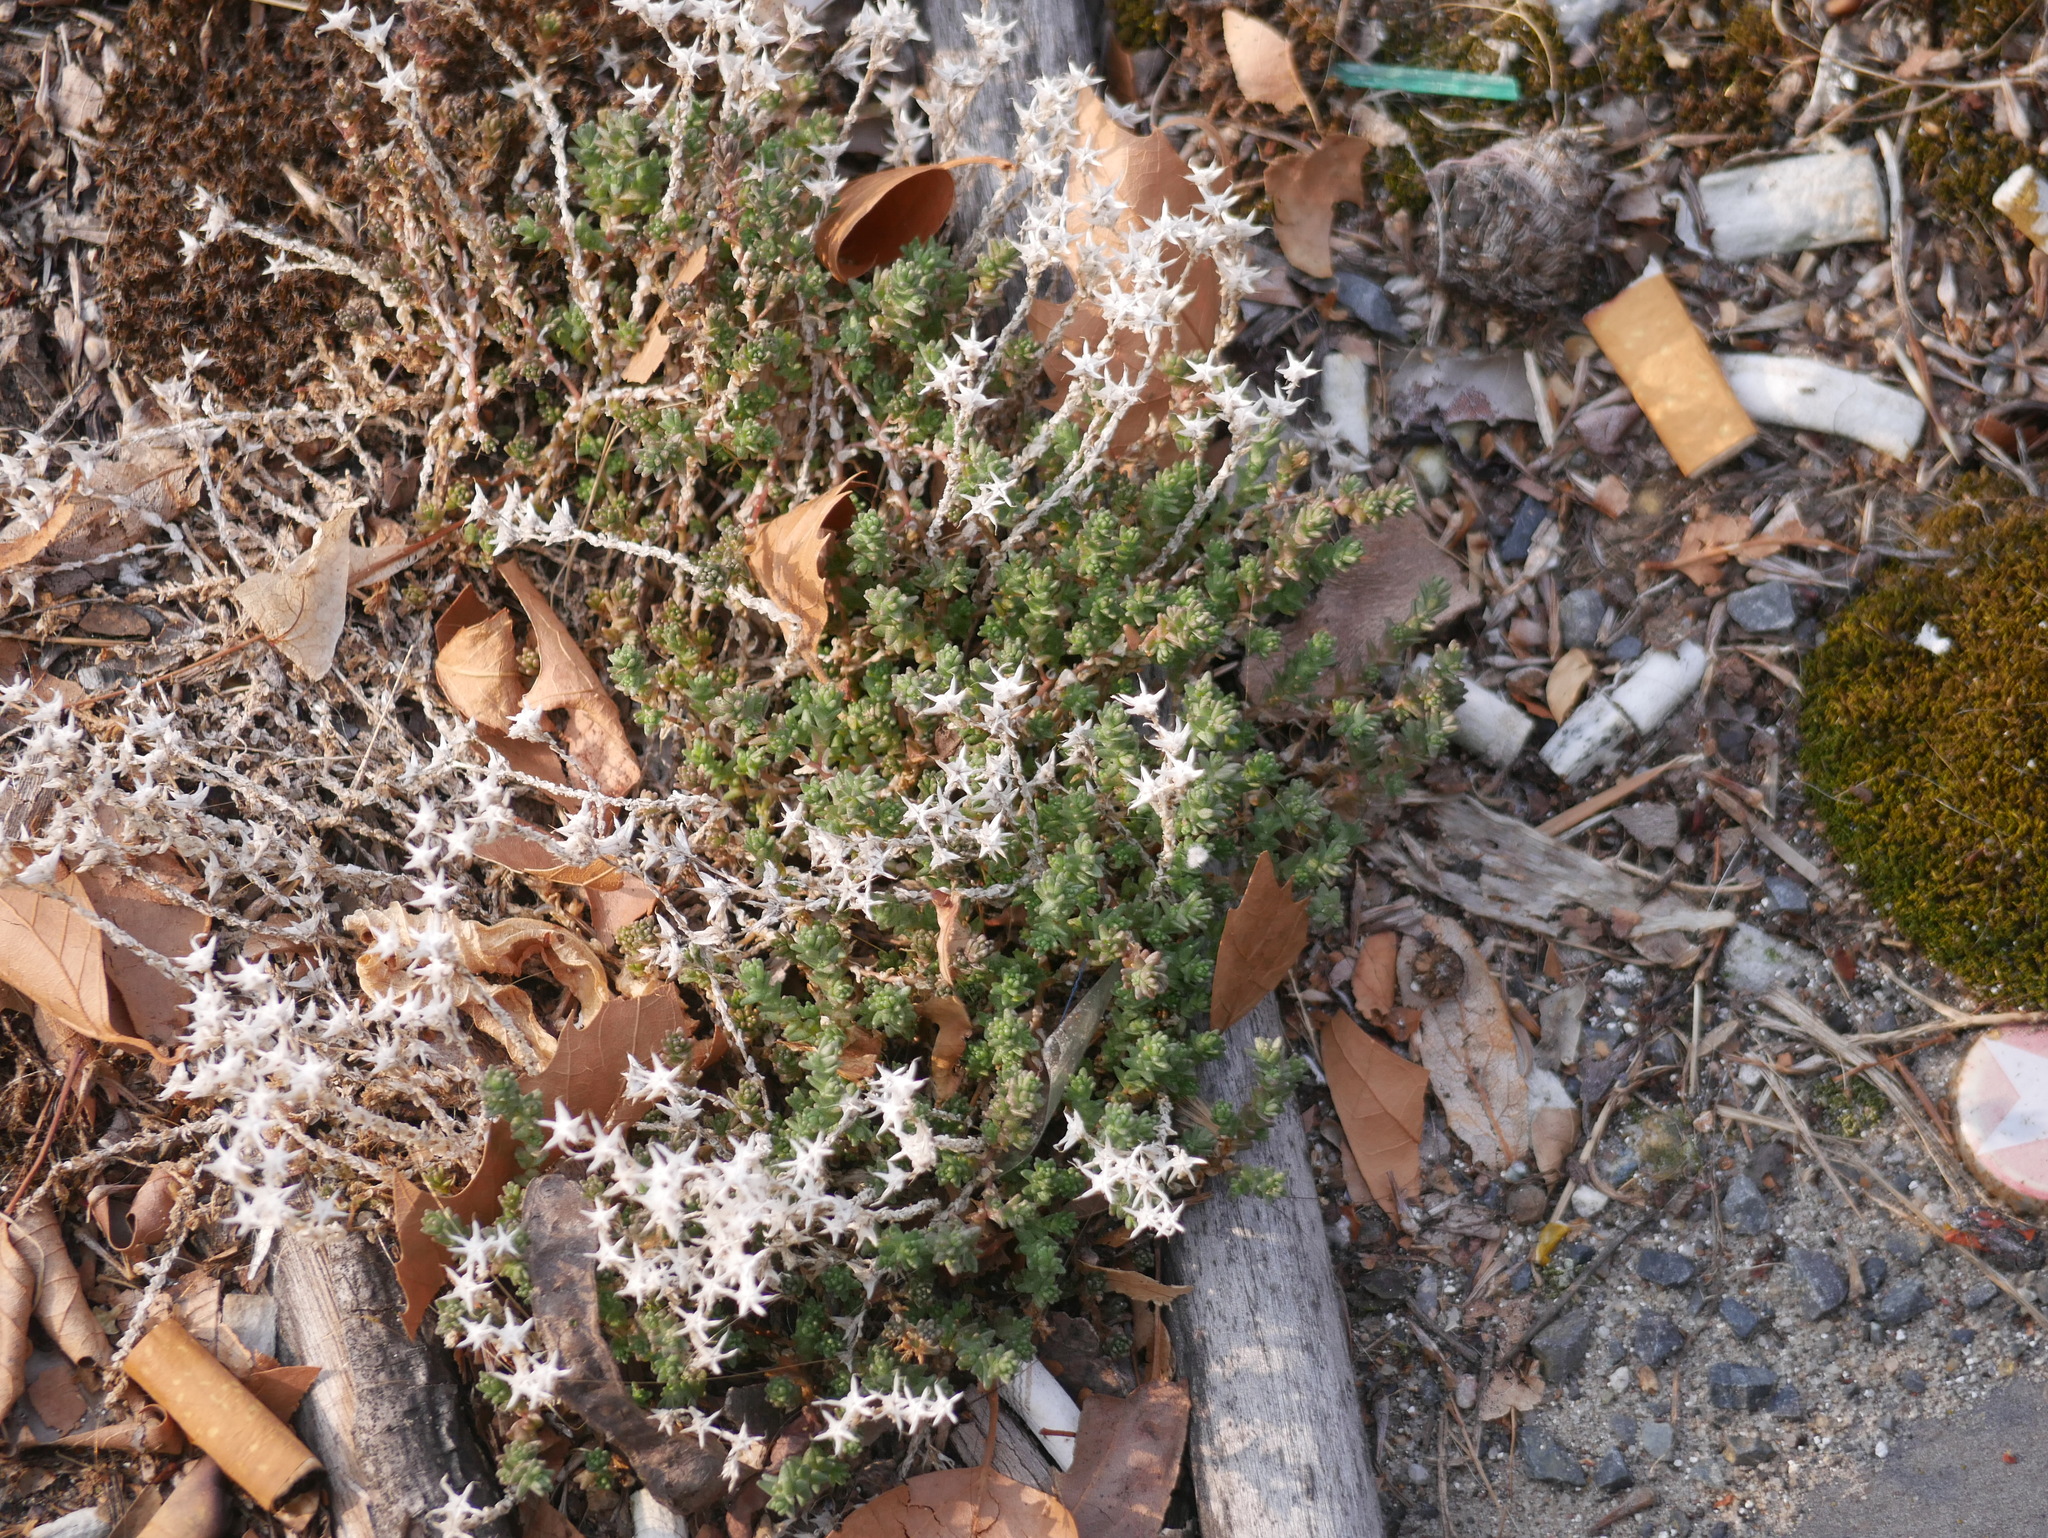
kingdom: Plantae
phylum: Tracheophyta
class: Magnoliopsida
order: Saxifragales
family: Crassulaceae
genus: Sedum
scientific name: Sedum acre
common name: Biting stonecrop
